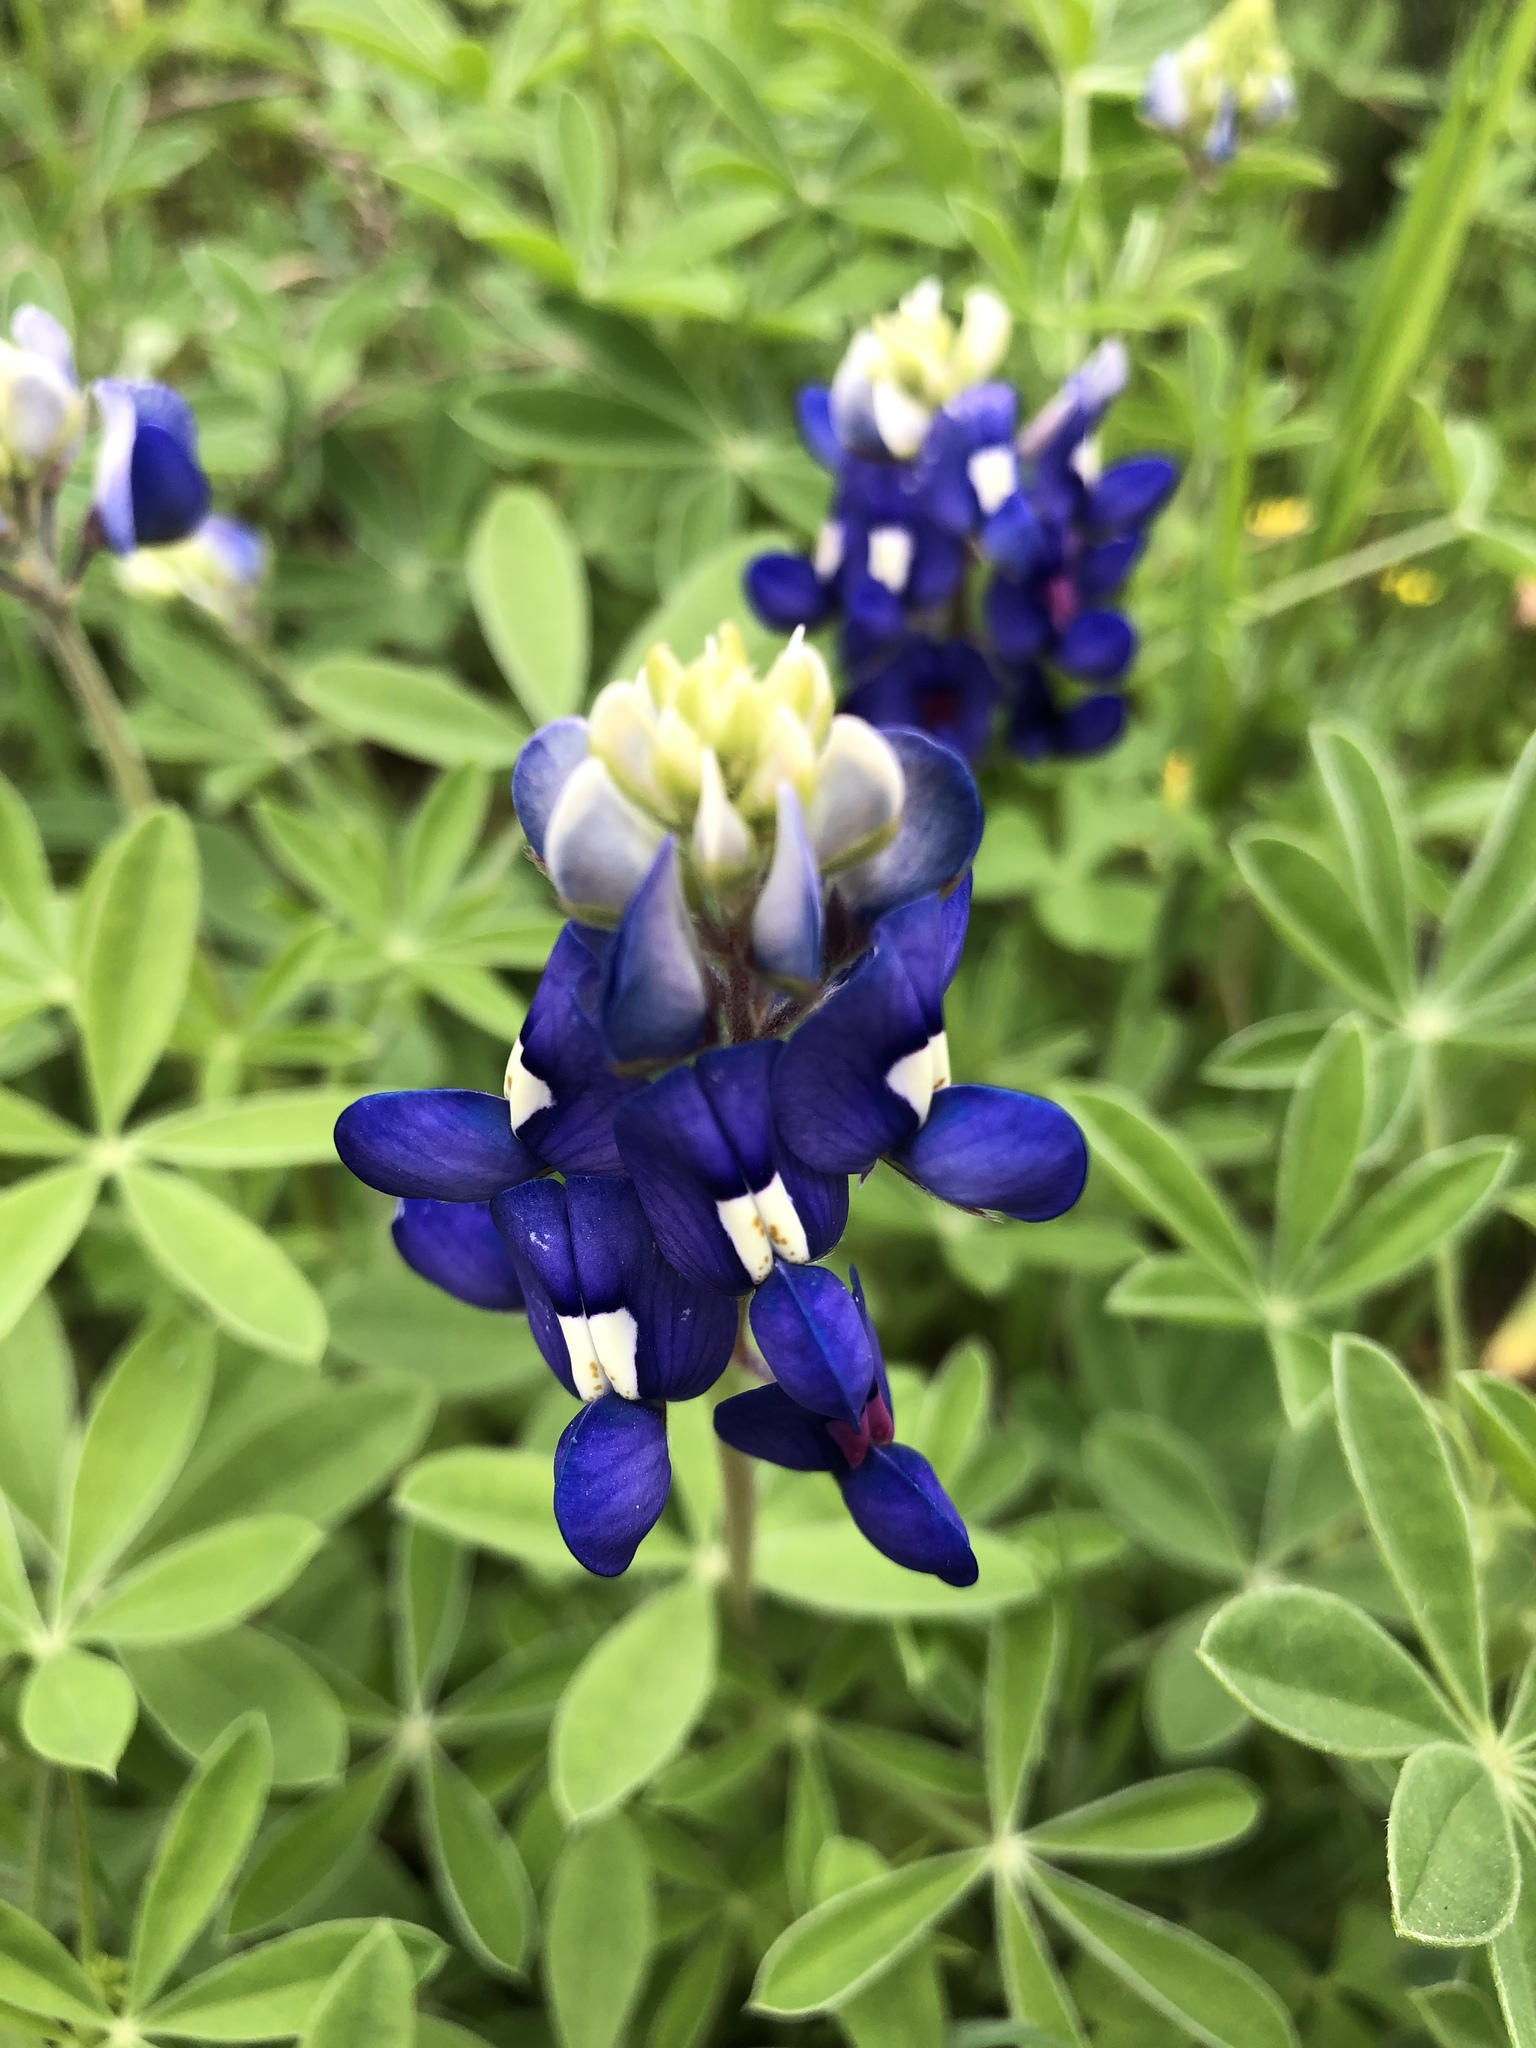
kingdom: Plantae
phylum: Tracheophyta
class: Magnoliopsida
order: Fabales
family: Fabaceae
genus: Lupinus
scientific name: Lupinus texensis
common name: Texas bluebonnet
